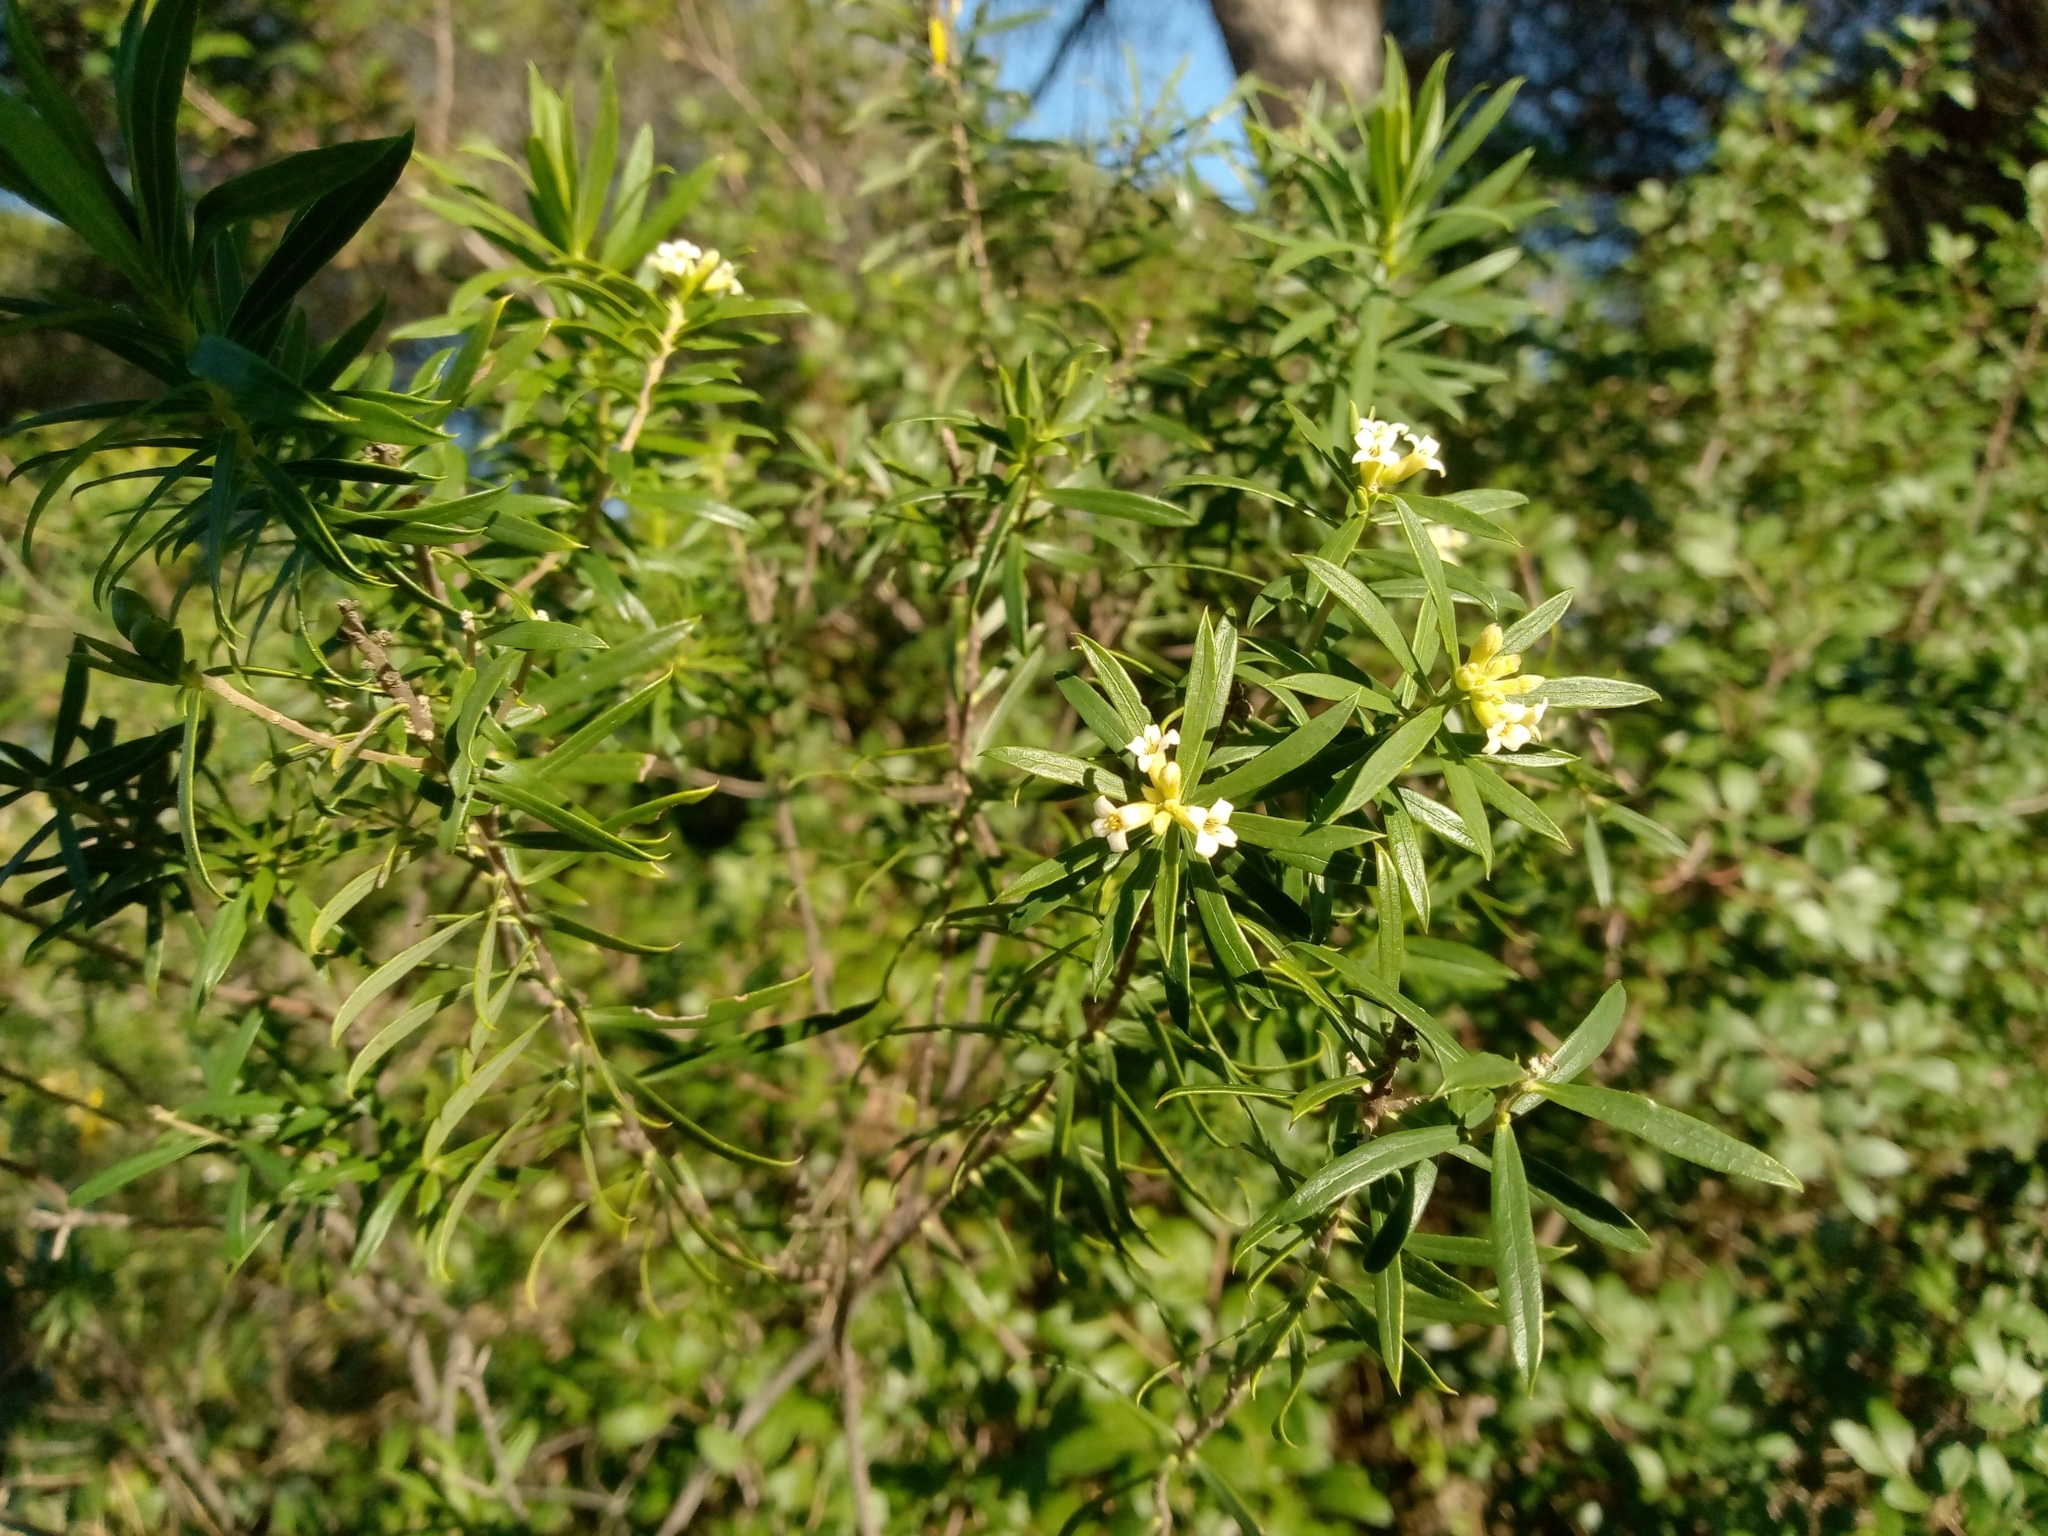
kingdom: Plantae
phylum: Tracheophyta
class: Magnoliopsida
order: Malvales
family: Thymelaeaceae
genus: Daphne
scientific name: Daphne gnidium
